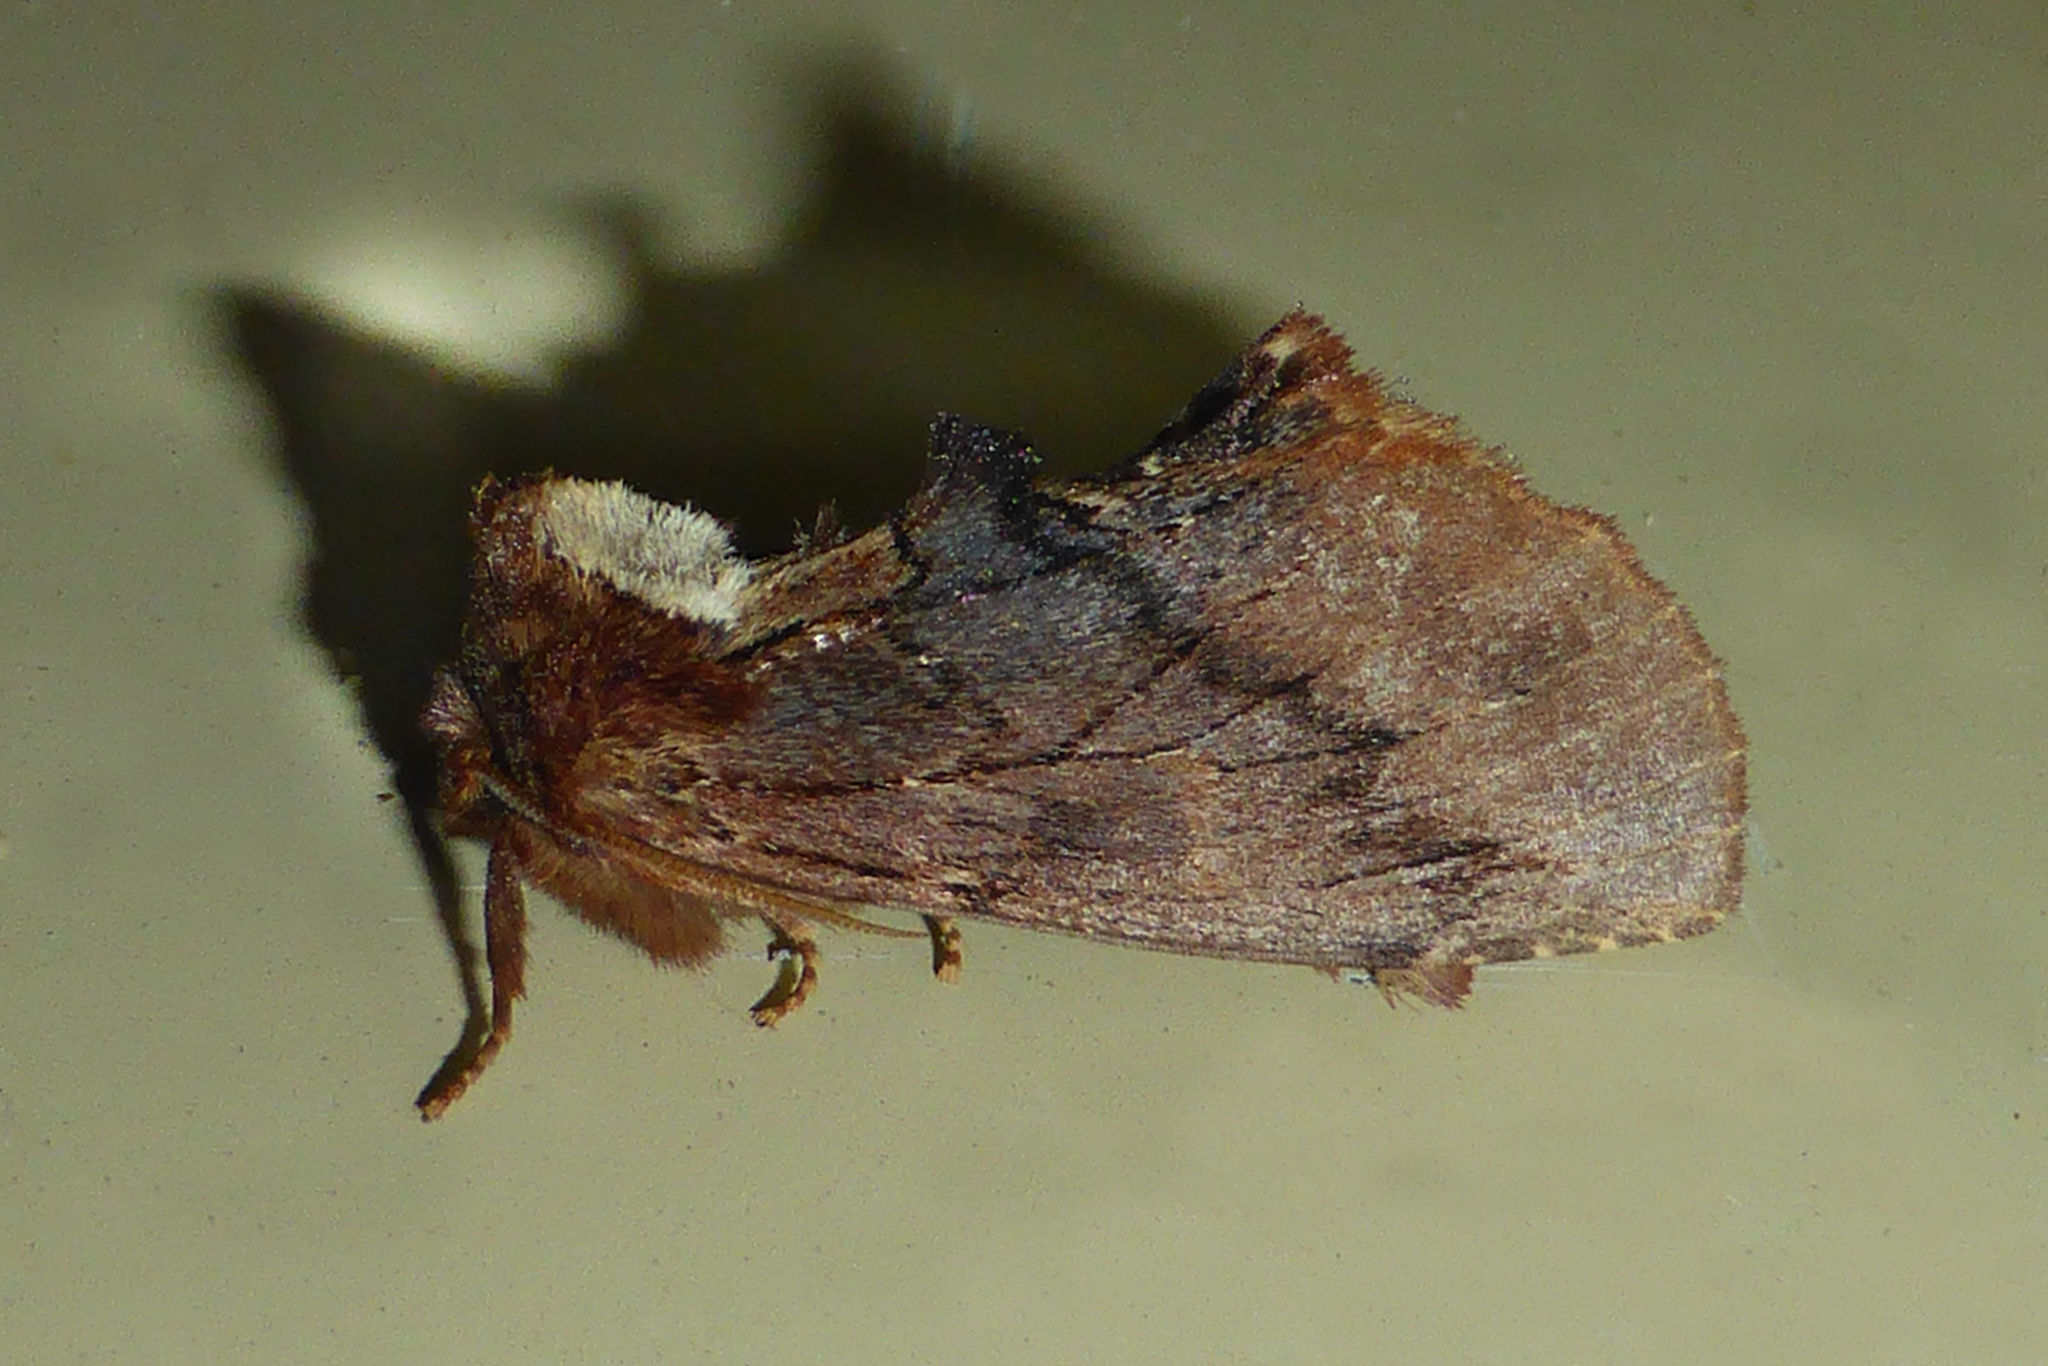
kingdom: Animalia
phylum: Arthropoda
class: Insecta
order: Lepidoptera
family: Notodontidae
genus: Ptilodon
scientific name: Ptilodon capucina
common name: Coxcomb prominent
